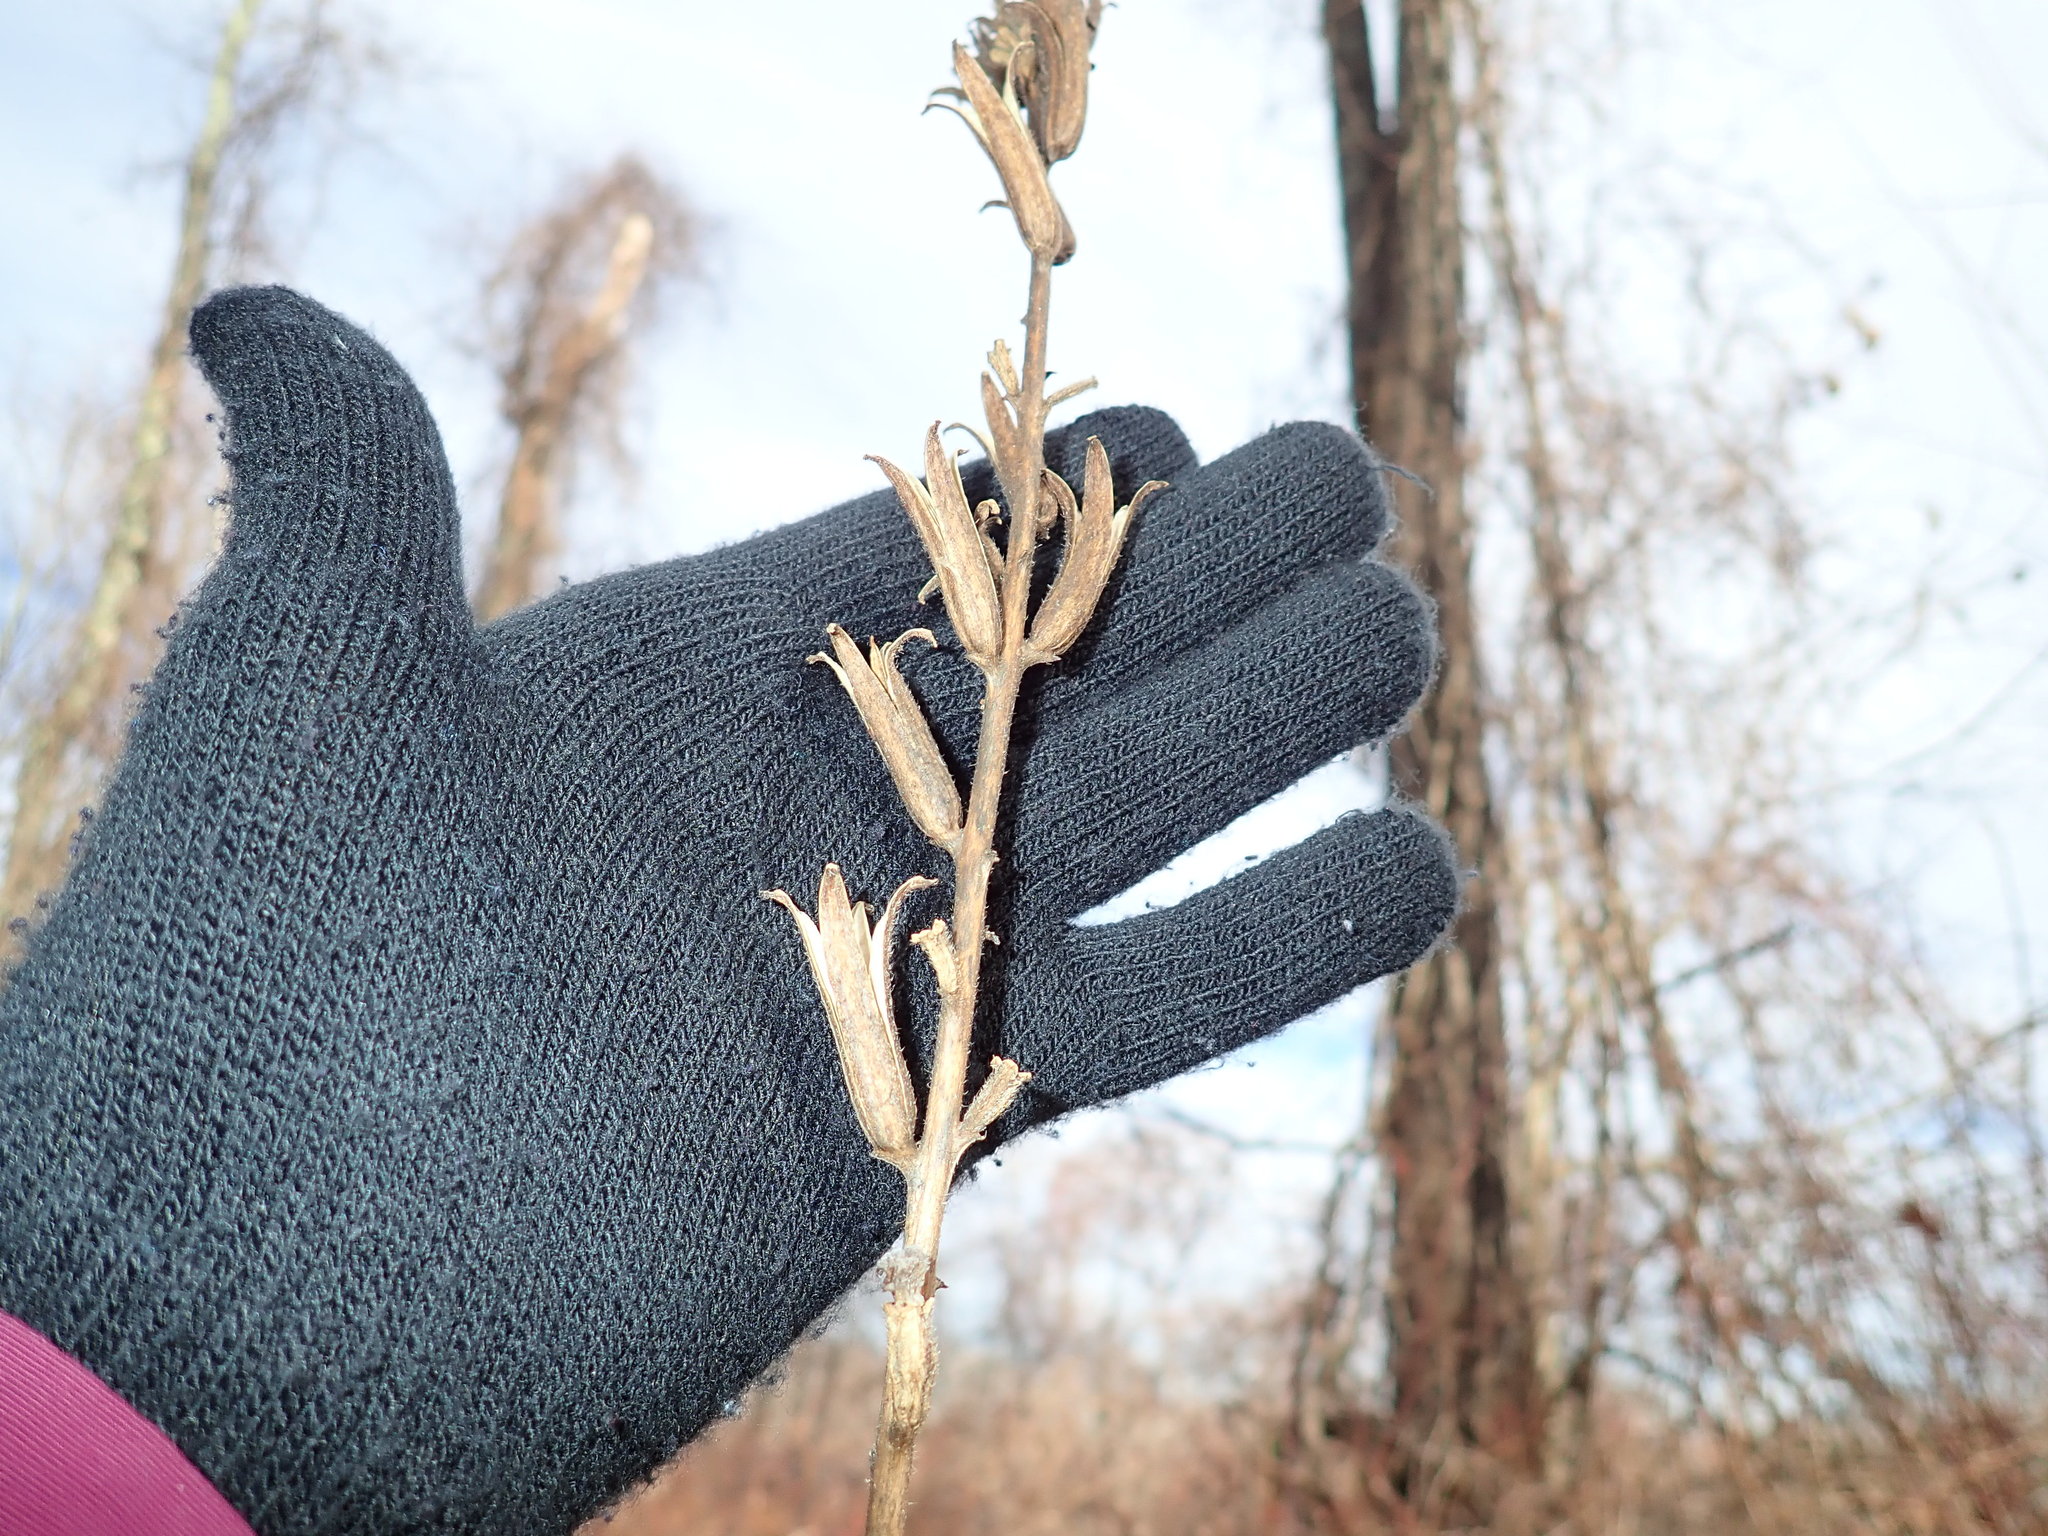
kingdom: Plantae
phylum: Tracheophyta
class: Magnoliopsida
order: Myrtales
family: Onagraceae
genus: Oenothera
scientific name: Oenothera biennis
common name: Common evening-primrose
